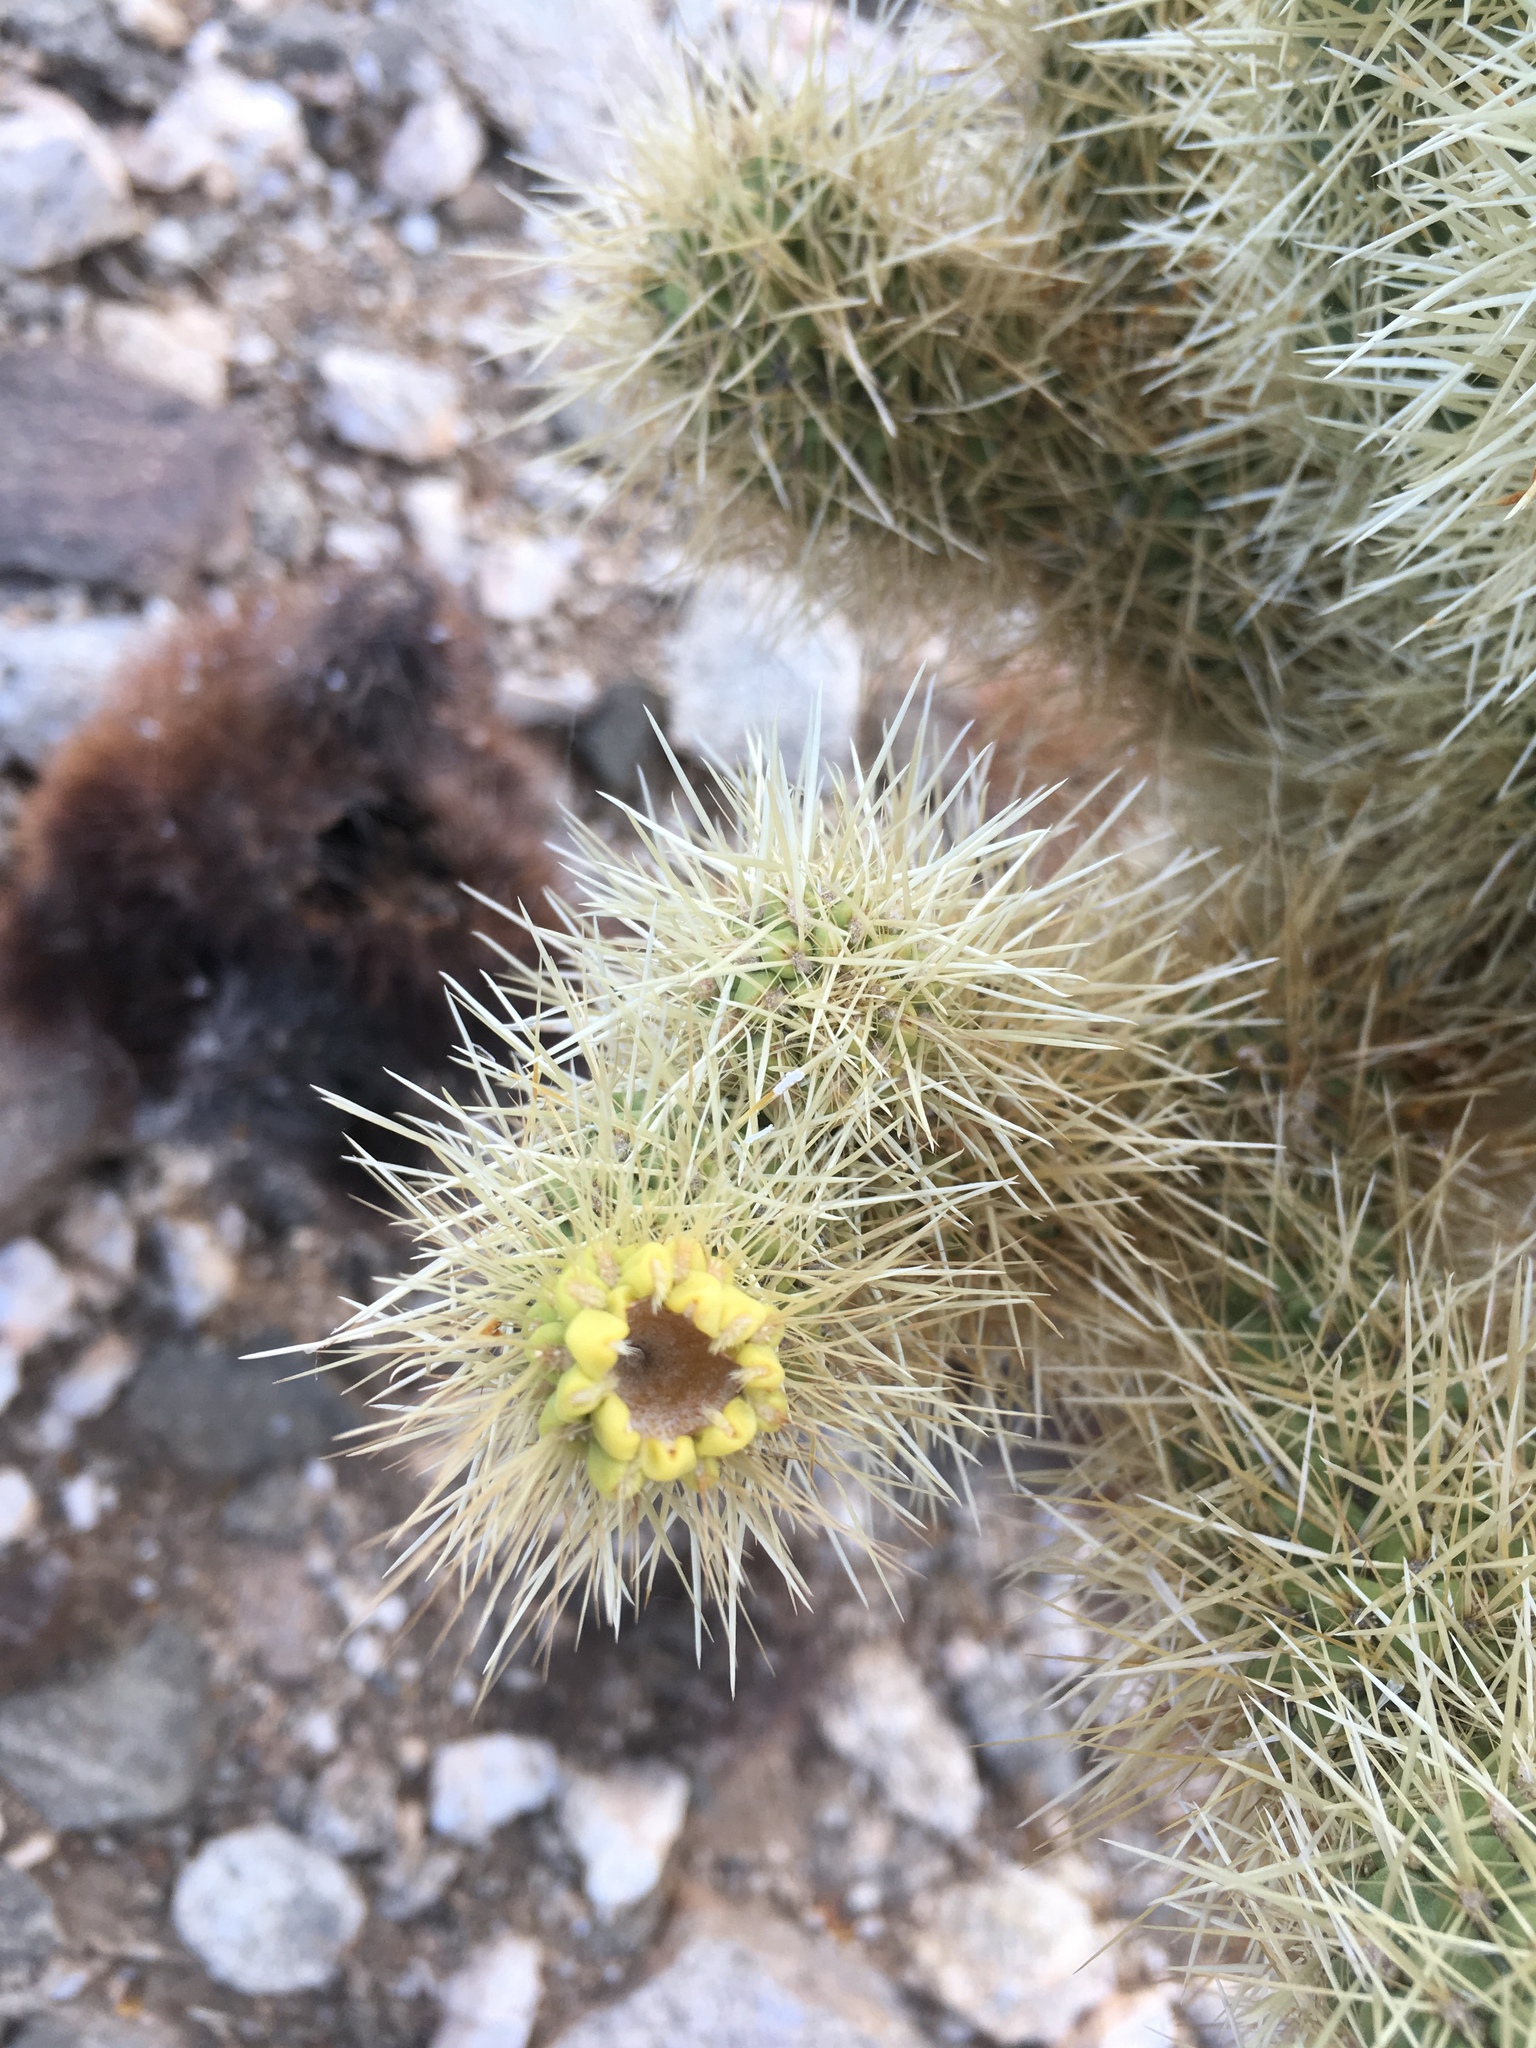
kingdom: Plantae
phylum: Tracheophyta
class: Magnoliopsida
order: Caryophyllales
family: Cactaceae
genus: Cylindropuntia
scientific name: Cylindropuntia fosbergii
